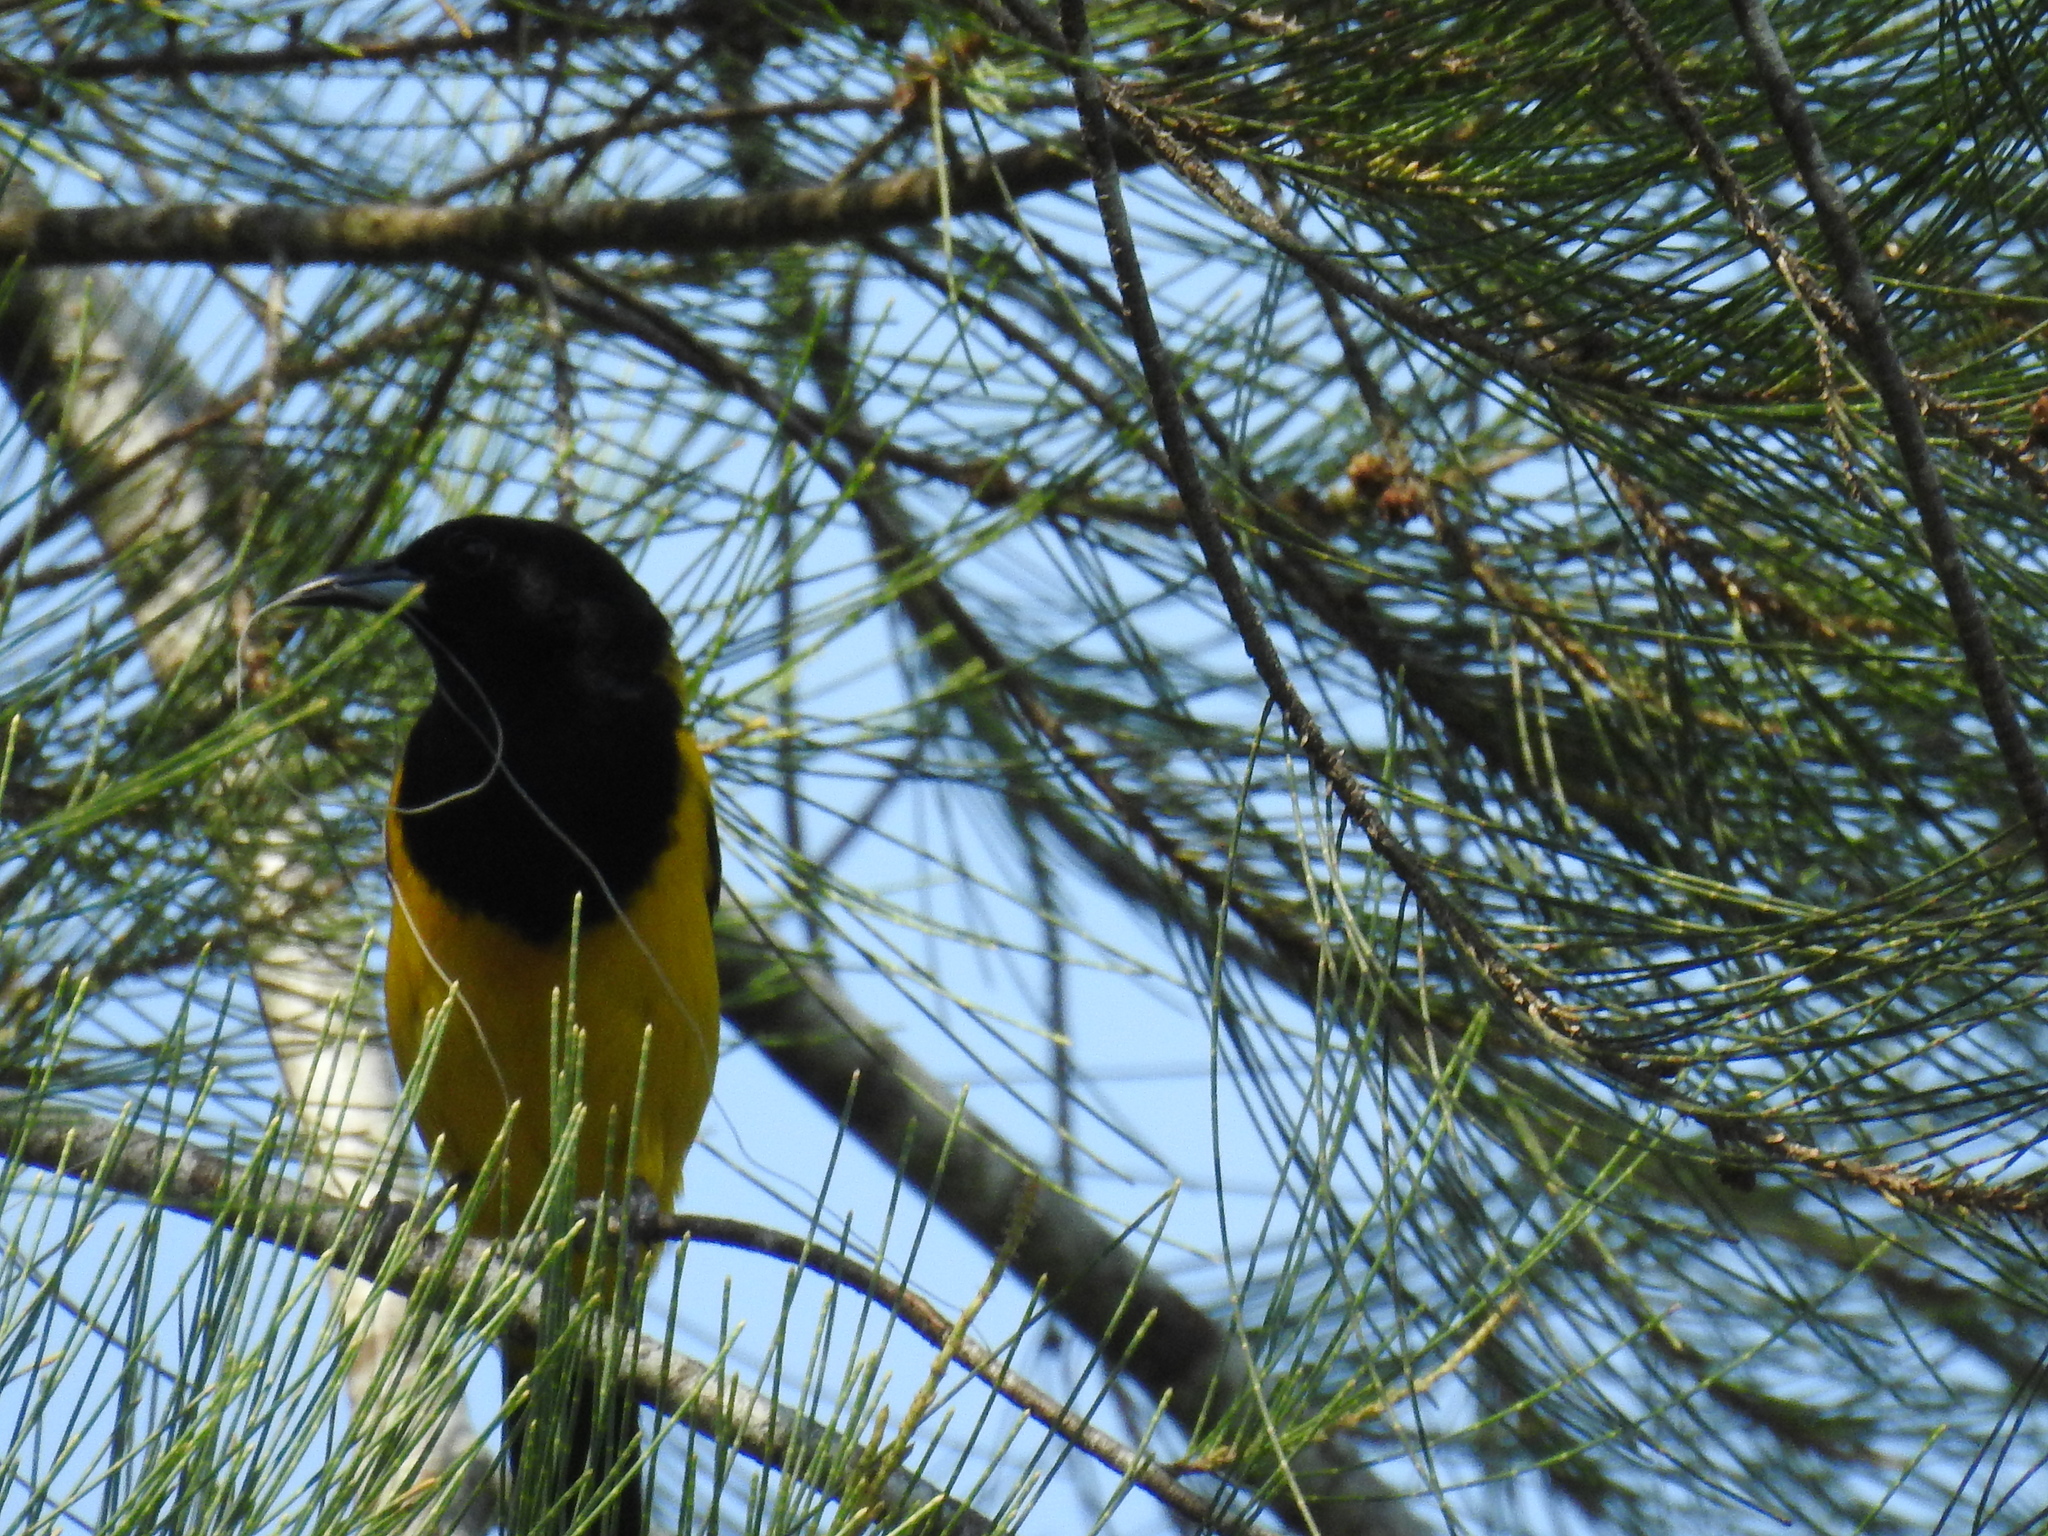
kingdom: Animalia
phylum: Chordata
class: Aves
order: Passeriformes
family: Icteridae
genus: Icterus
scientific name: Icterus prosthemelas
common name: Black-cowled oriole
